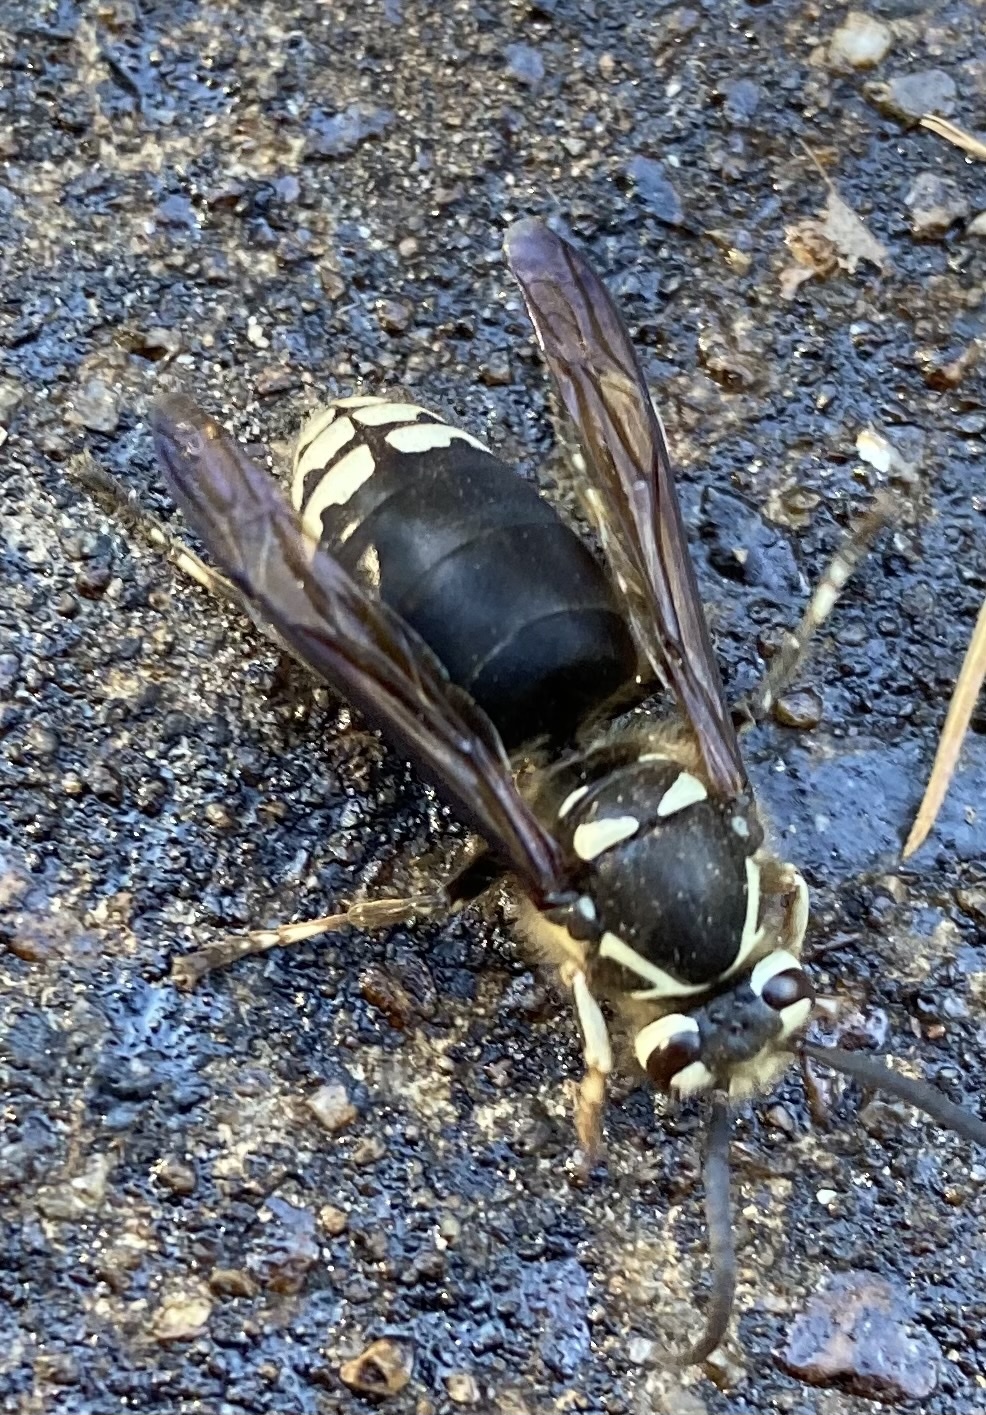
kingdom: Animalia
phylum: Arthropoda
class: Insecta
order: Hymenoptera
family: Vespidae
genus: Dolichovespula
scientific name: Dolichovespula maculata
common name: Bald-faced hornet
